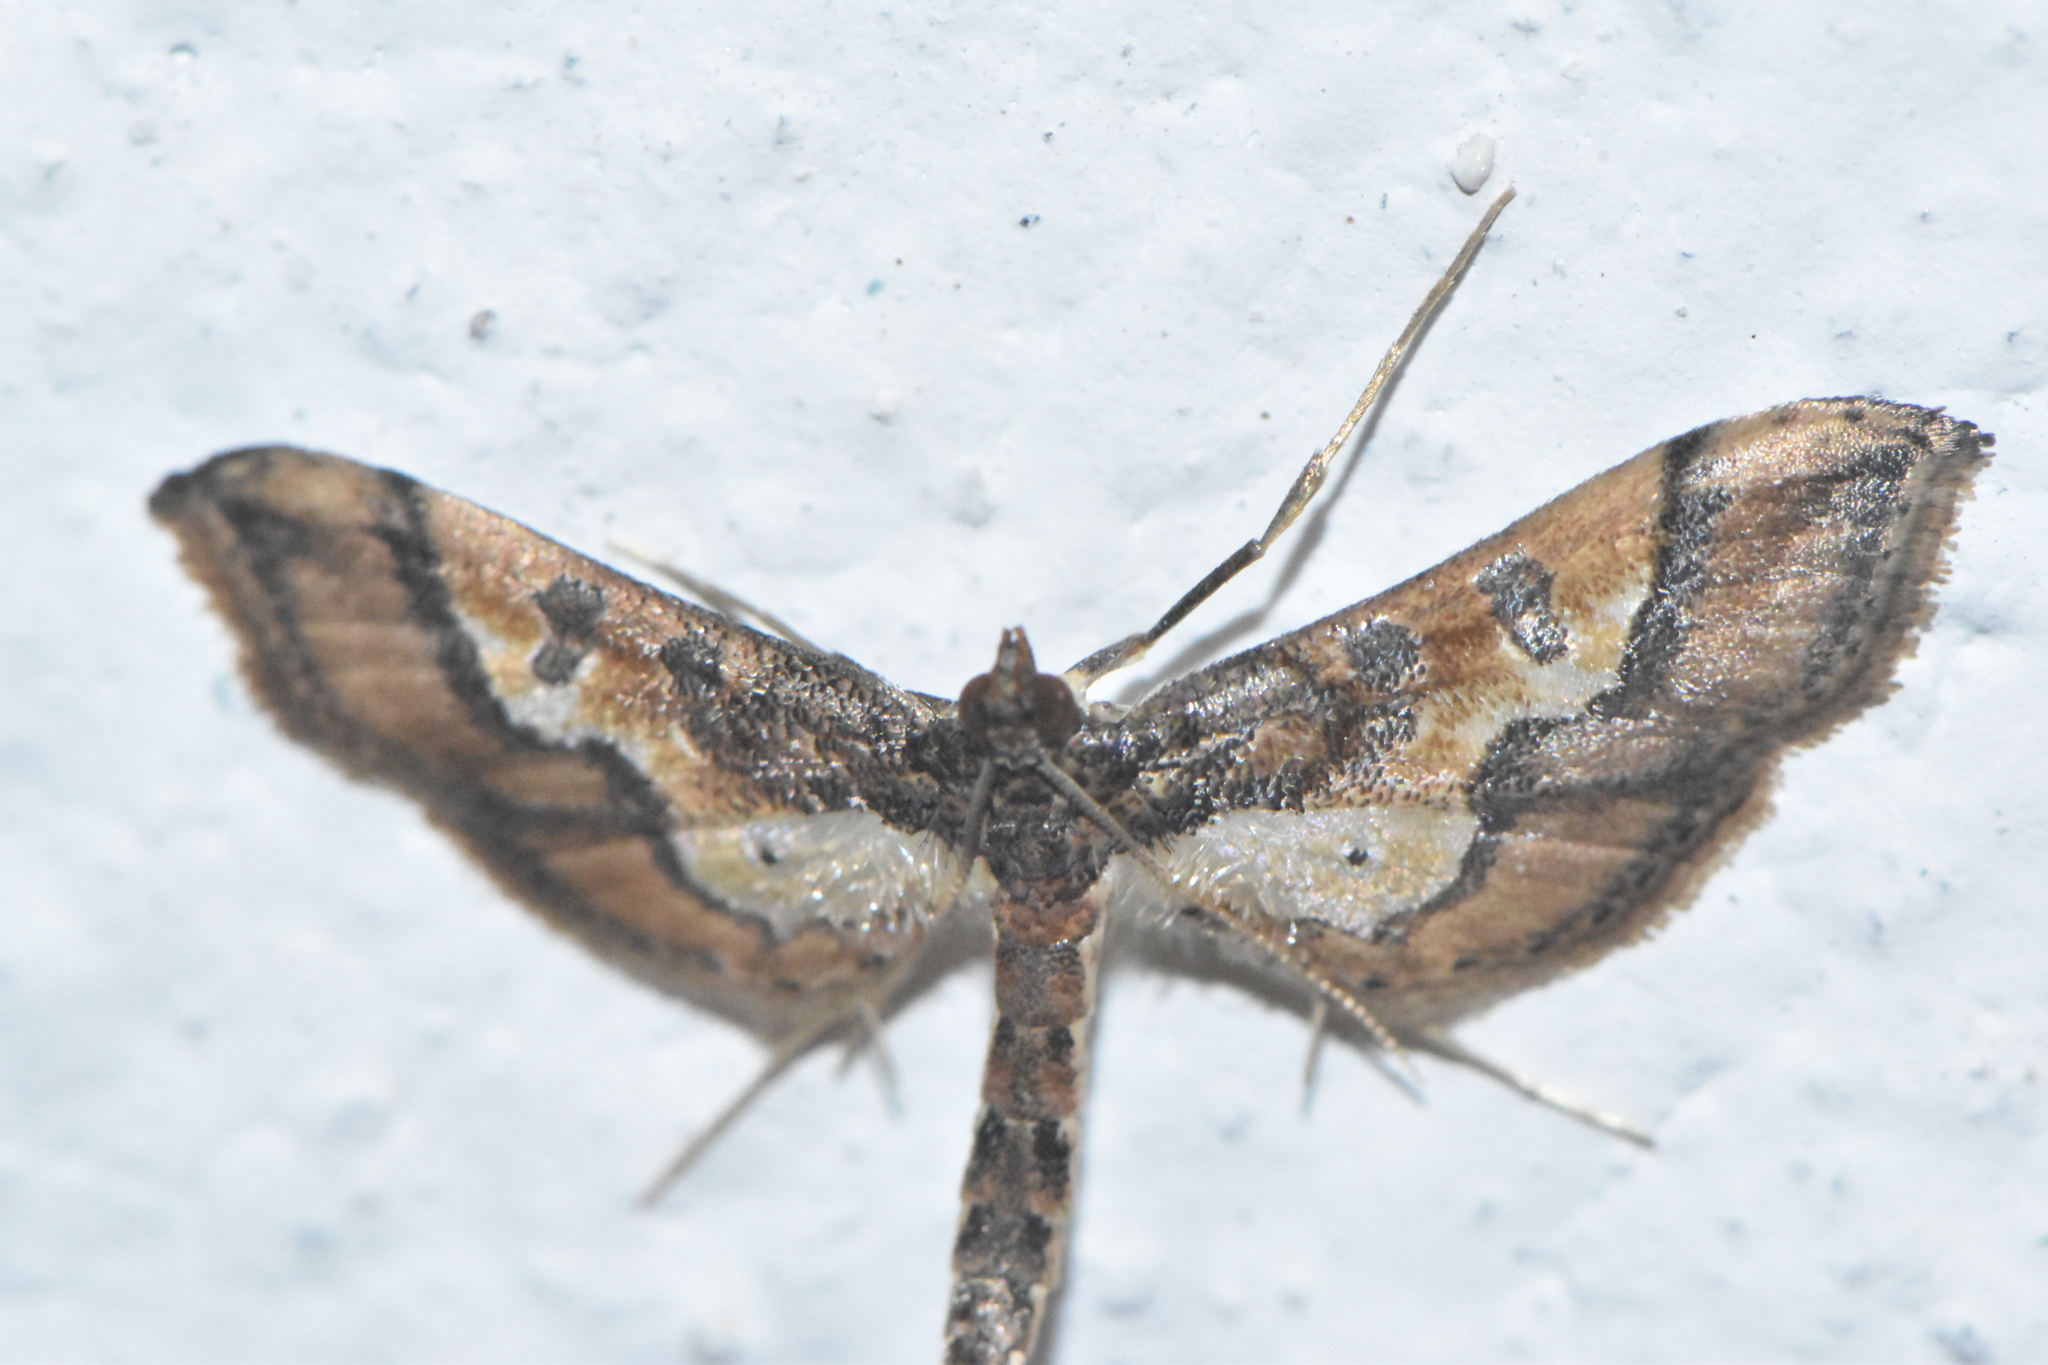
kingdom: Animalia
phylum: Arthropoda
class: Insecta
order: Lepidoptera
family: Crambidae
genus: Hydriris
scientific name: Hydriris ornatalis
